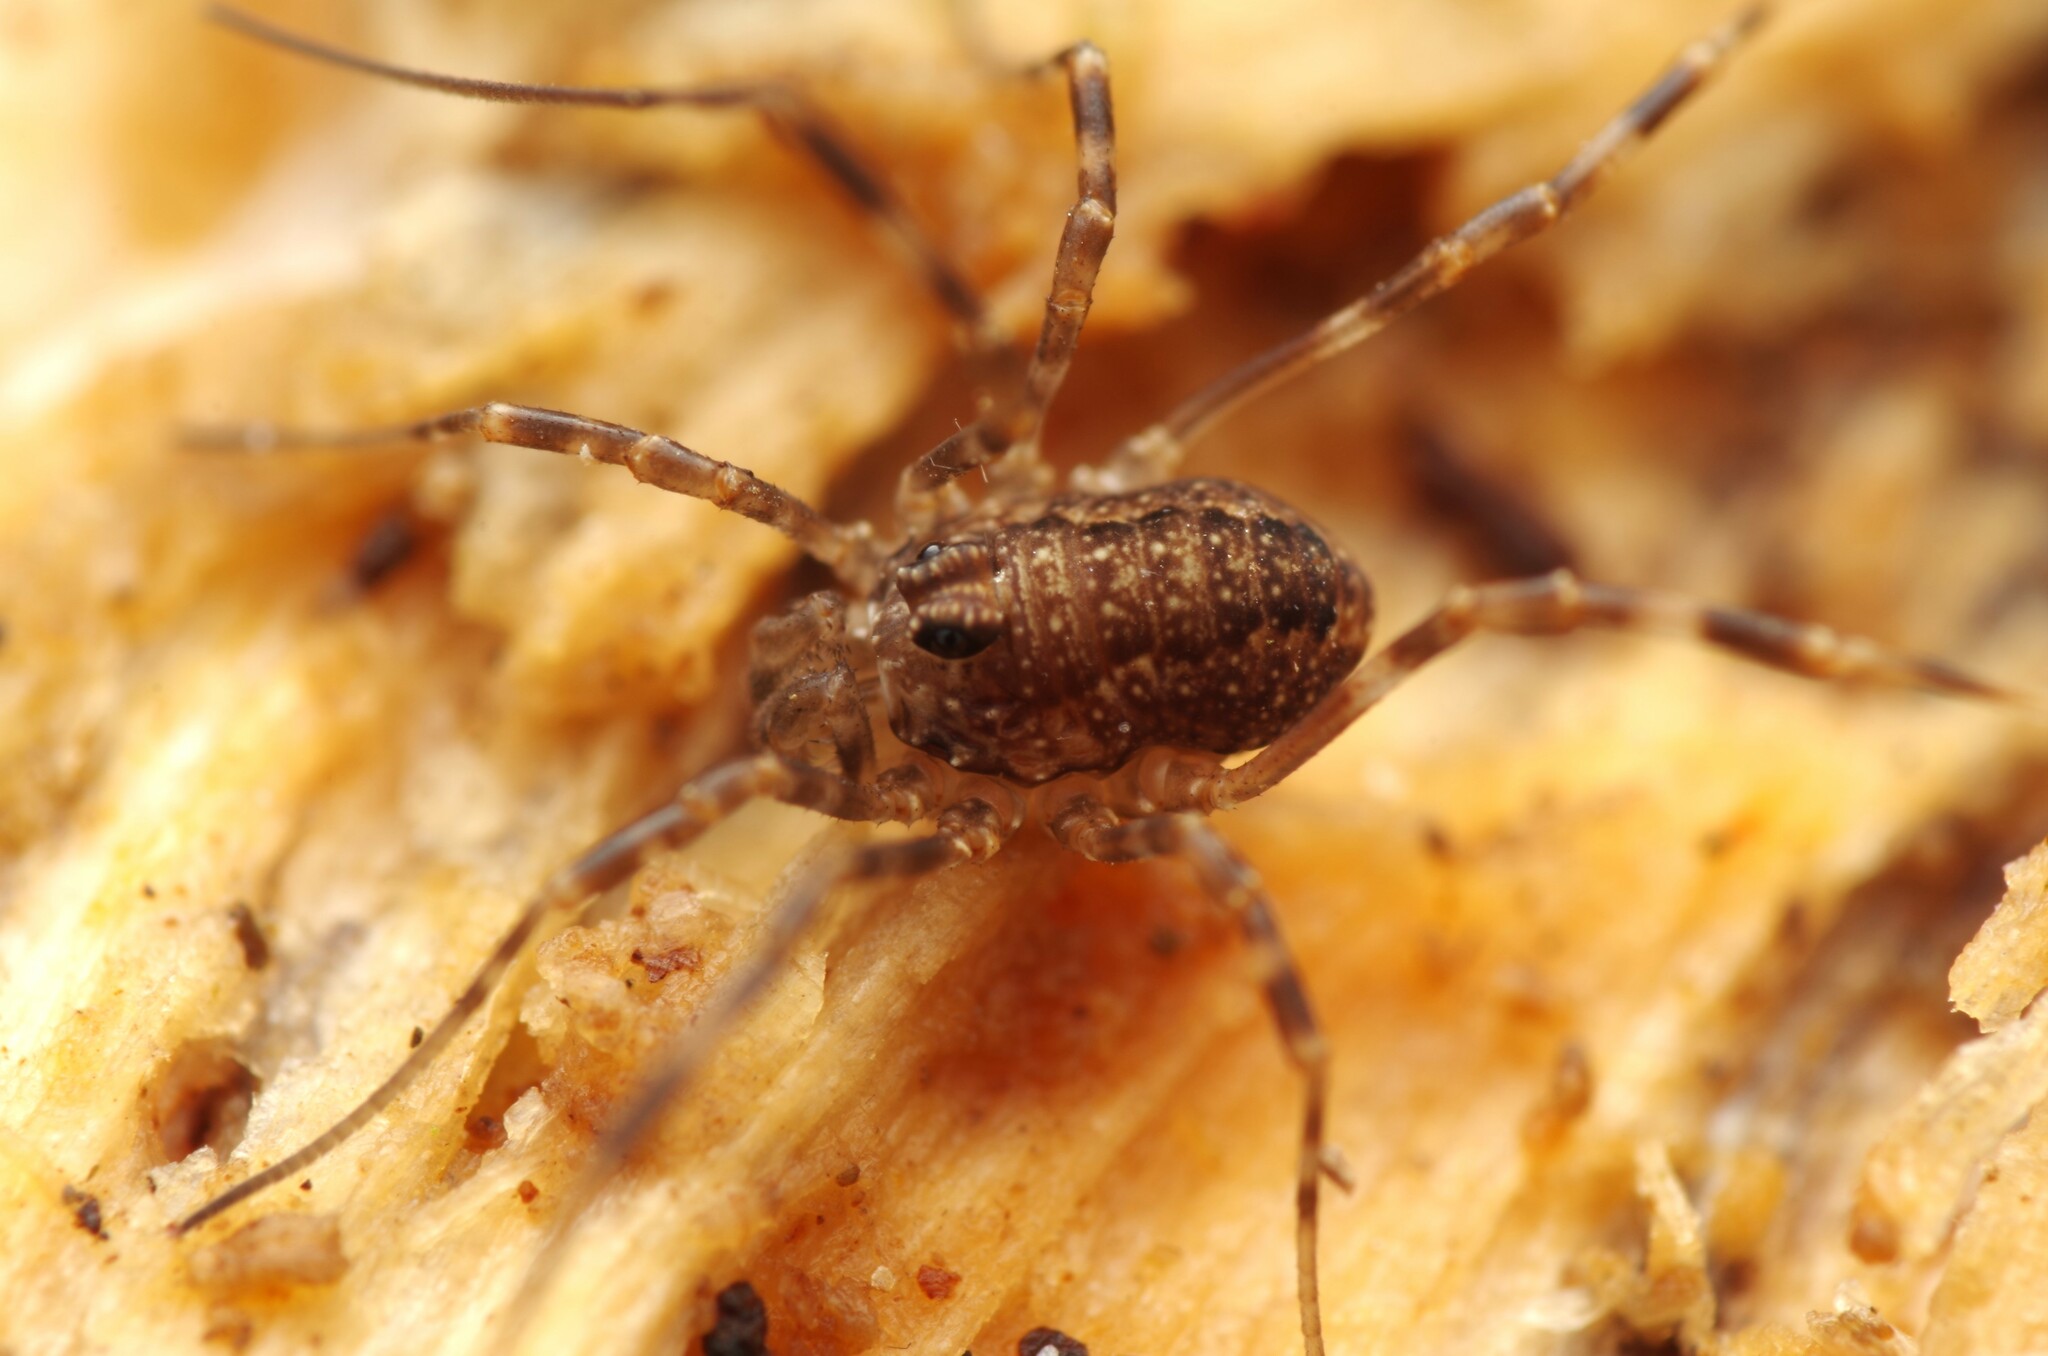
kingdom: Animalia
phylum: Arthropoda
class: Arachnida
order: Opiliones
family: Phalangiidae
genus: Rilaena
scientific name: Rilaena triangularis
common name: Spring harvestman
